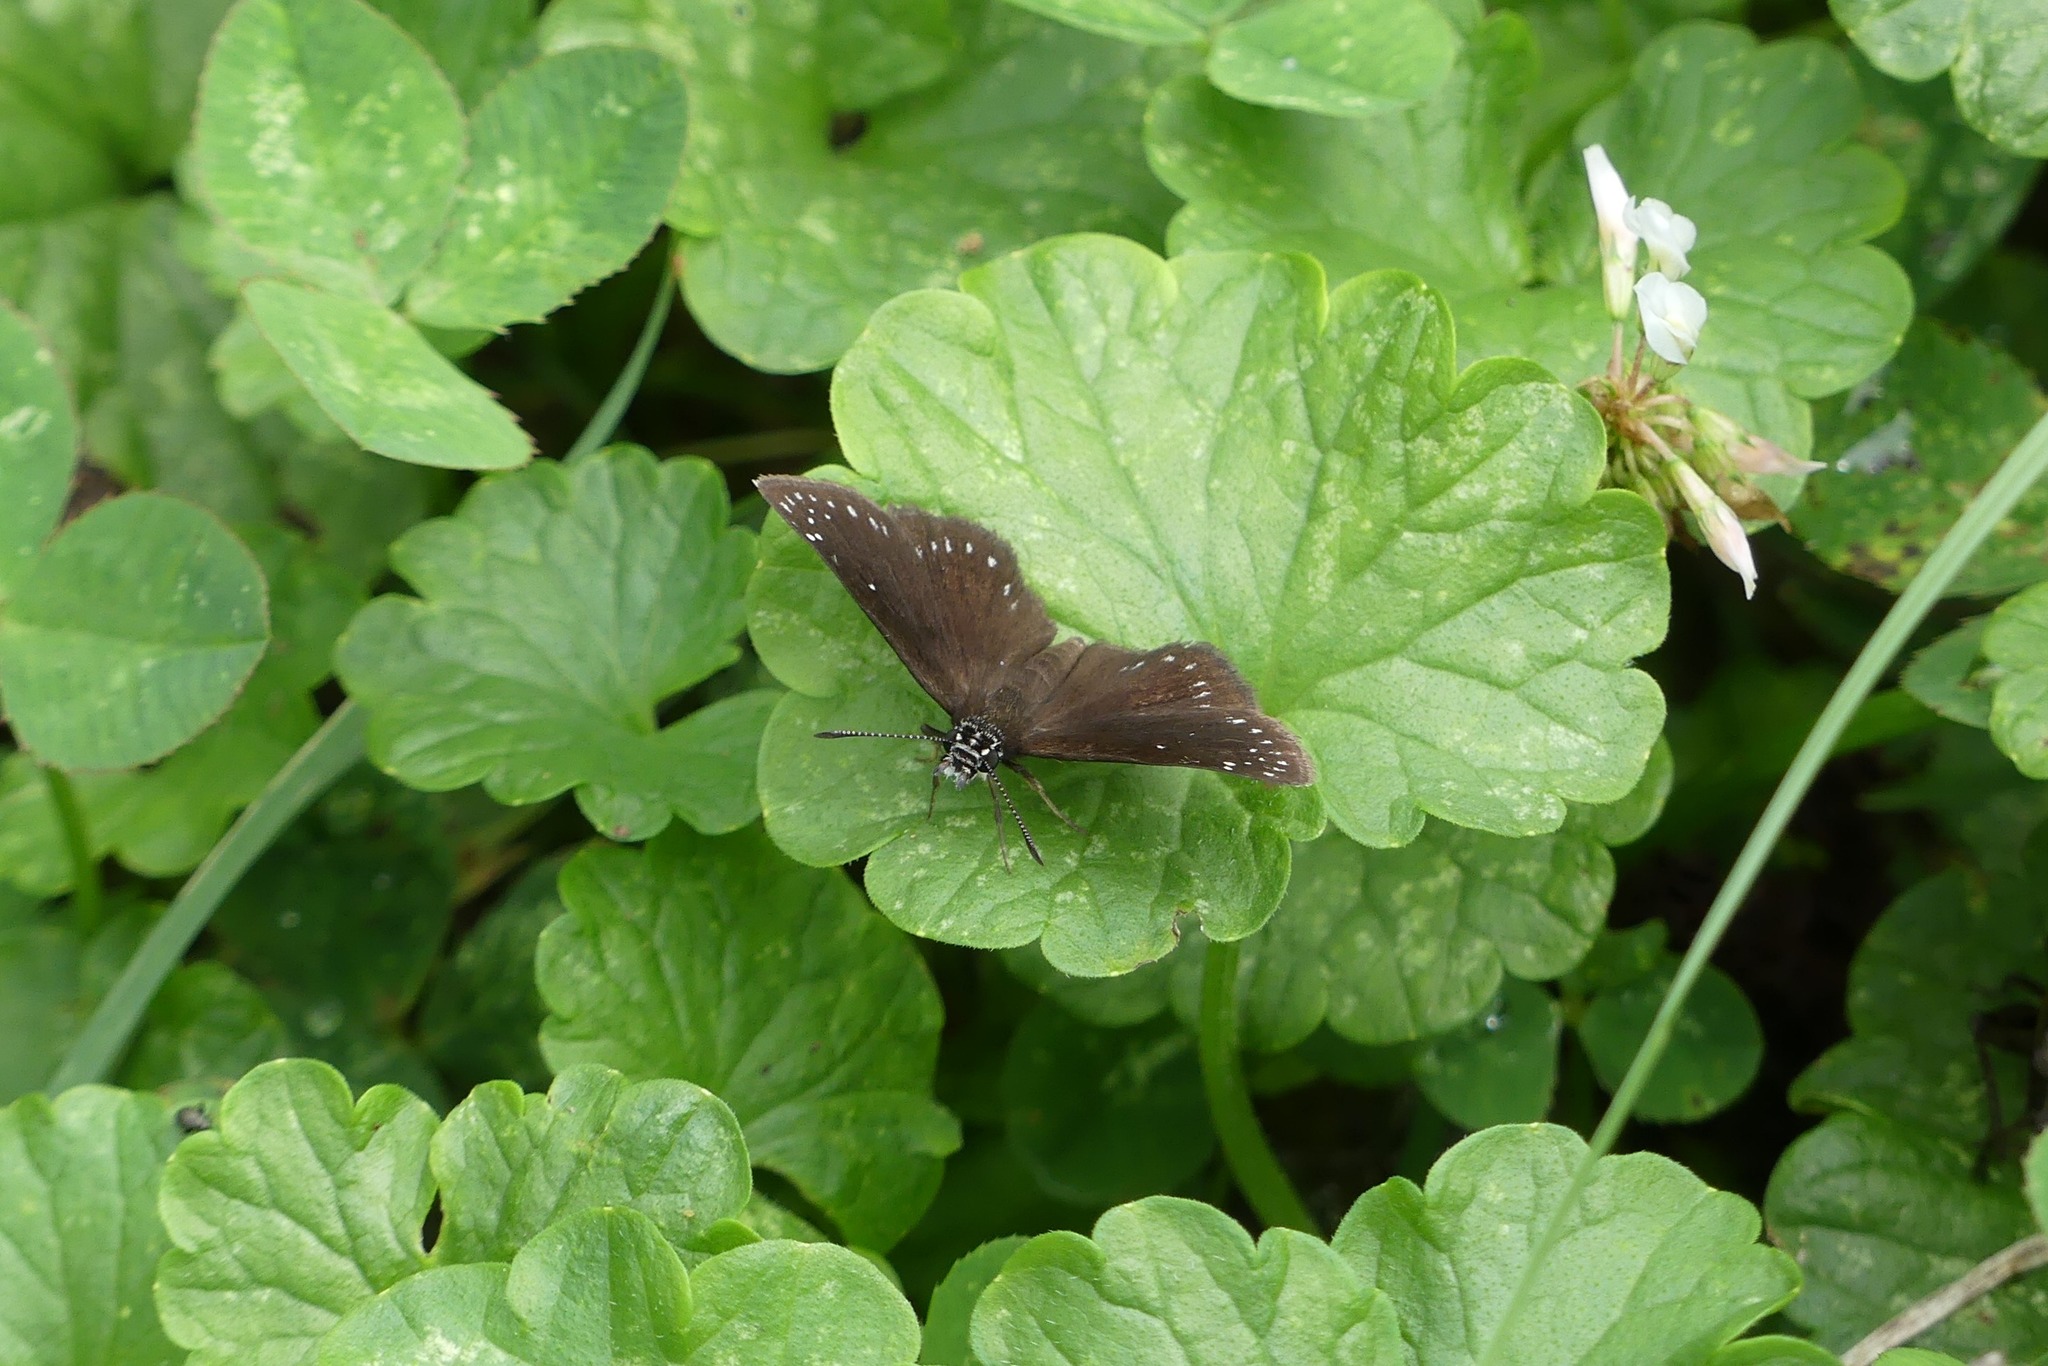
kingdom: Animalia
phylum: Arthropoda
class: Insecta
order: Lepidoptera
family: Hesperiidae
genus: Pholisora
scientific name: Pholisora catullus
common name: Common sootywing
